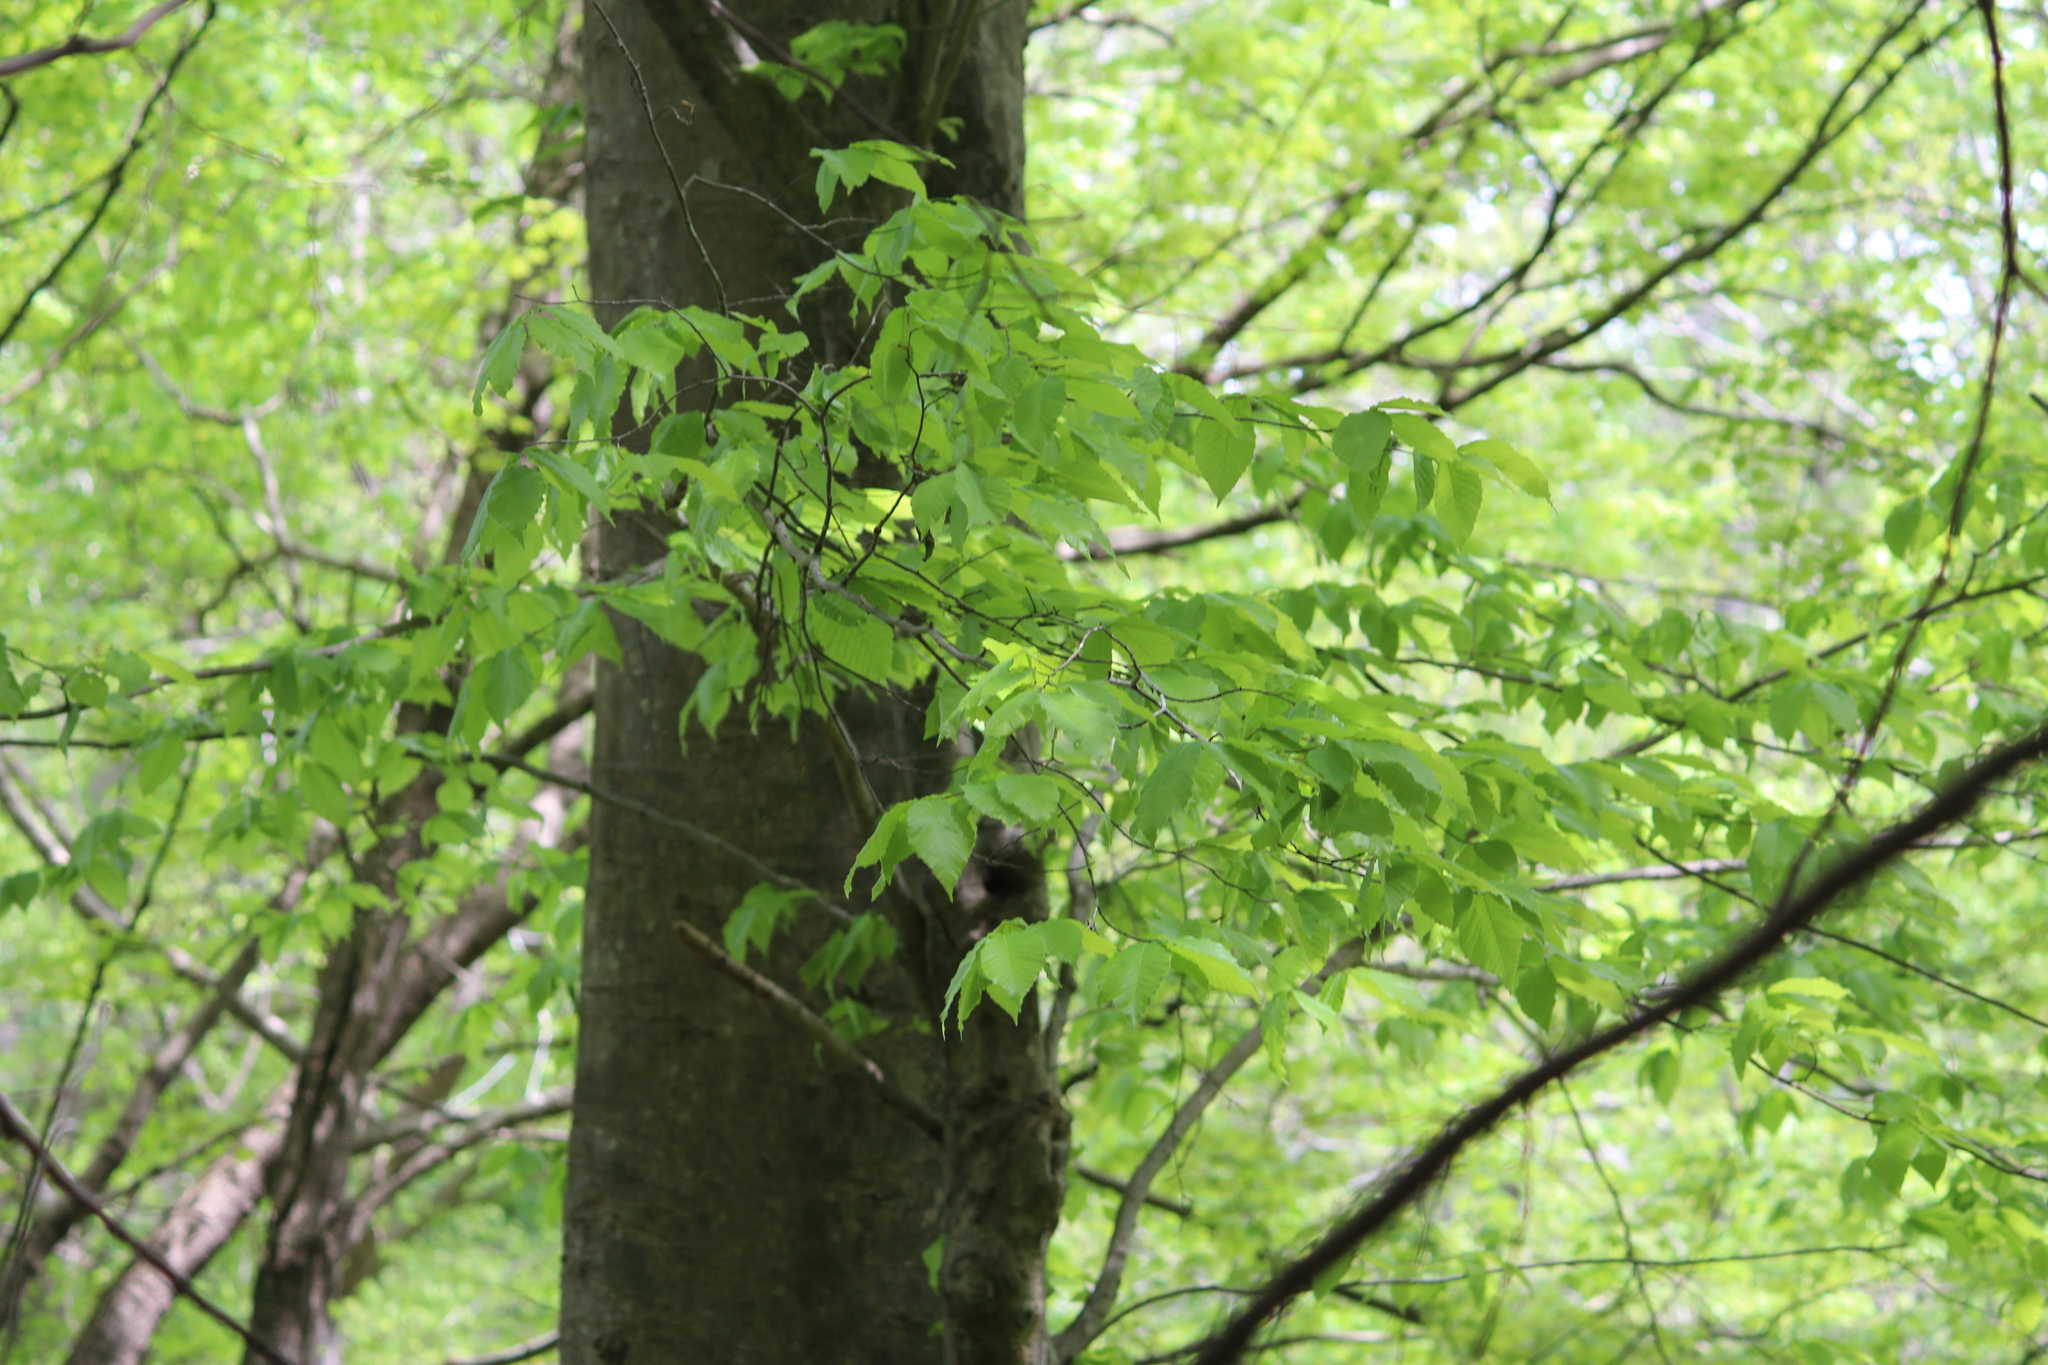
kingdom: Plantae
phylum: Tracheophyta
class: Magnoliopsida
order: Fagales
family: Fagaceae
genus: Fagus
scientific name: Fagus grandifolia
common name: American beech
